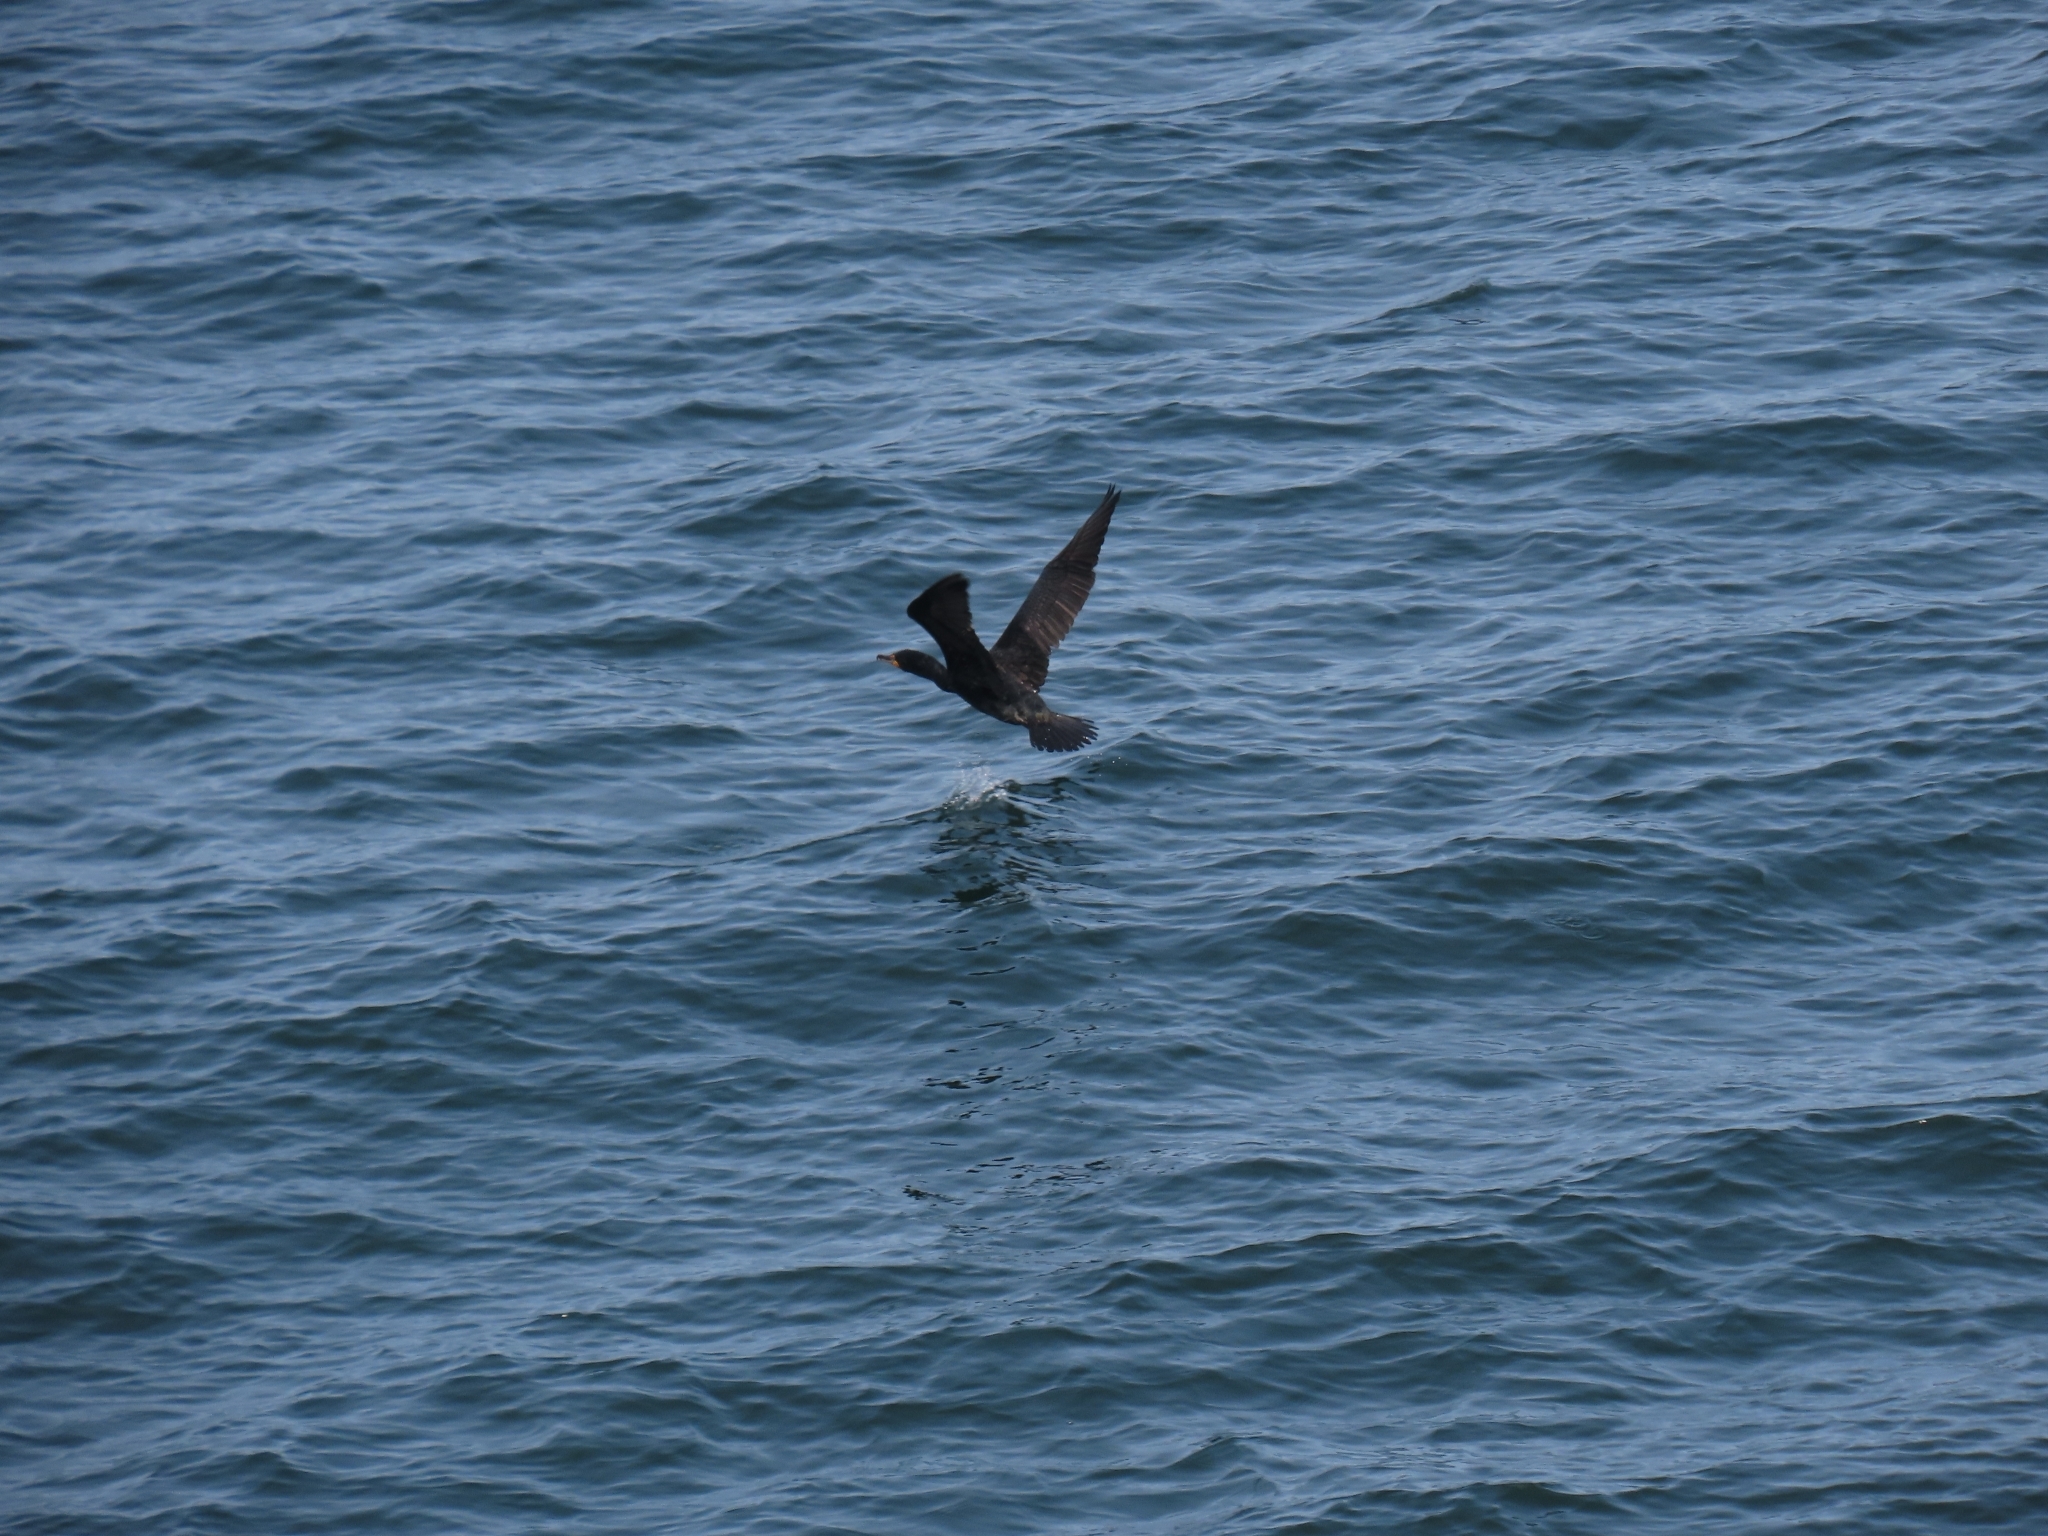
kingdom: Animalia
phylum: Chordata
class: Aves
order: Suliformes
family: Phalacrocoracidae
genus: Phalacrocorax
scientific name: Phalacrocorax auritus
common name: Double-crested cormorant
